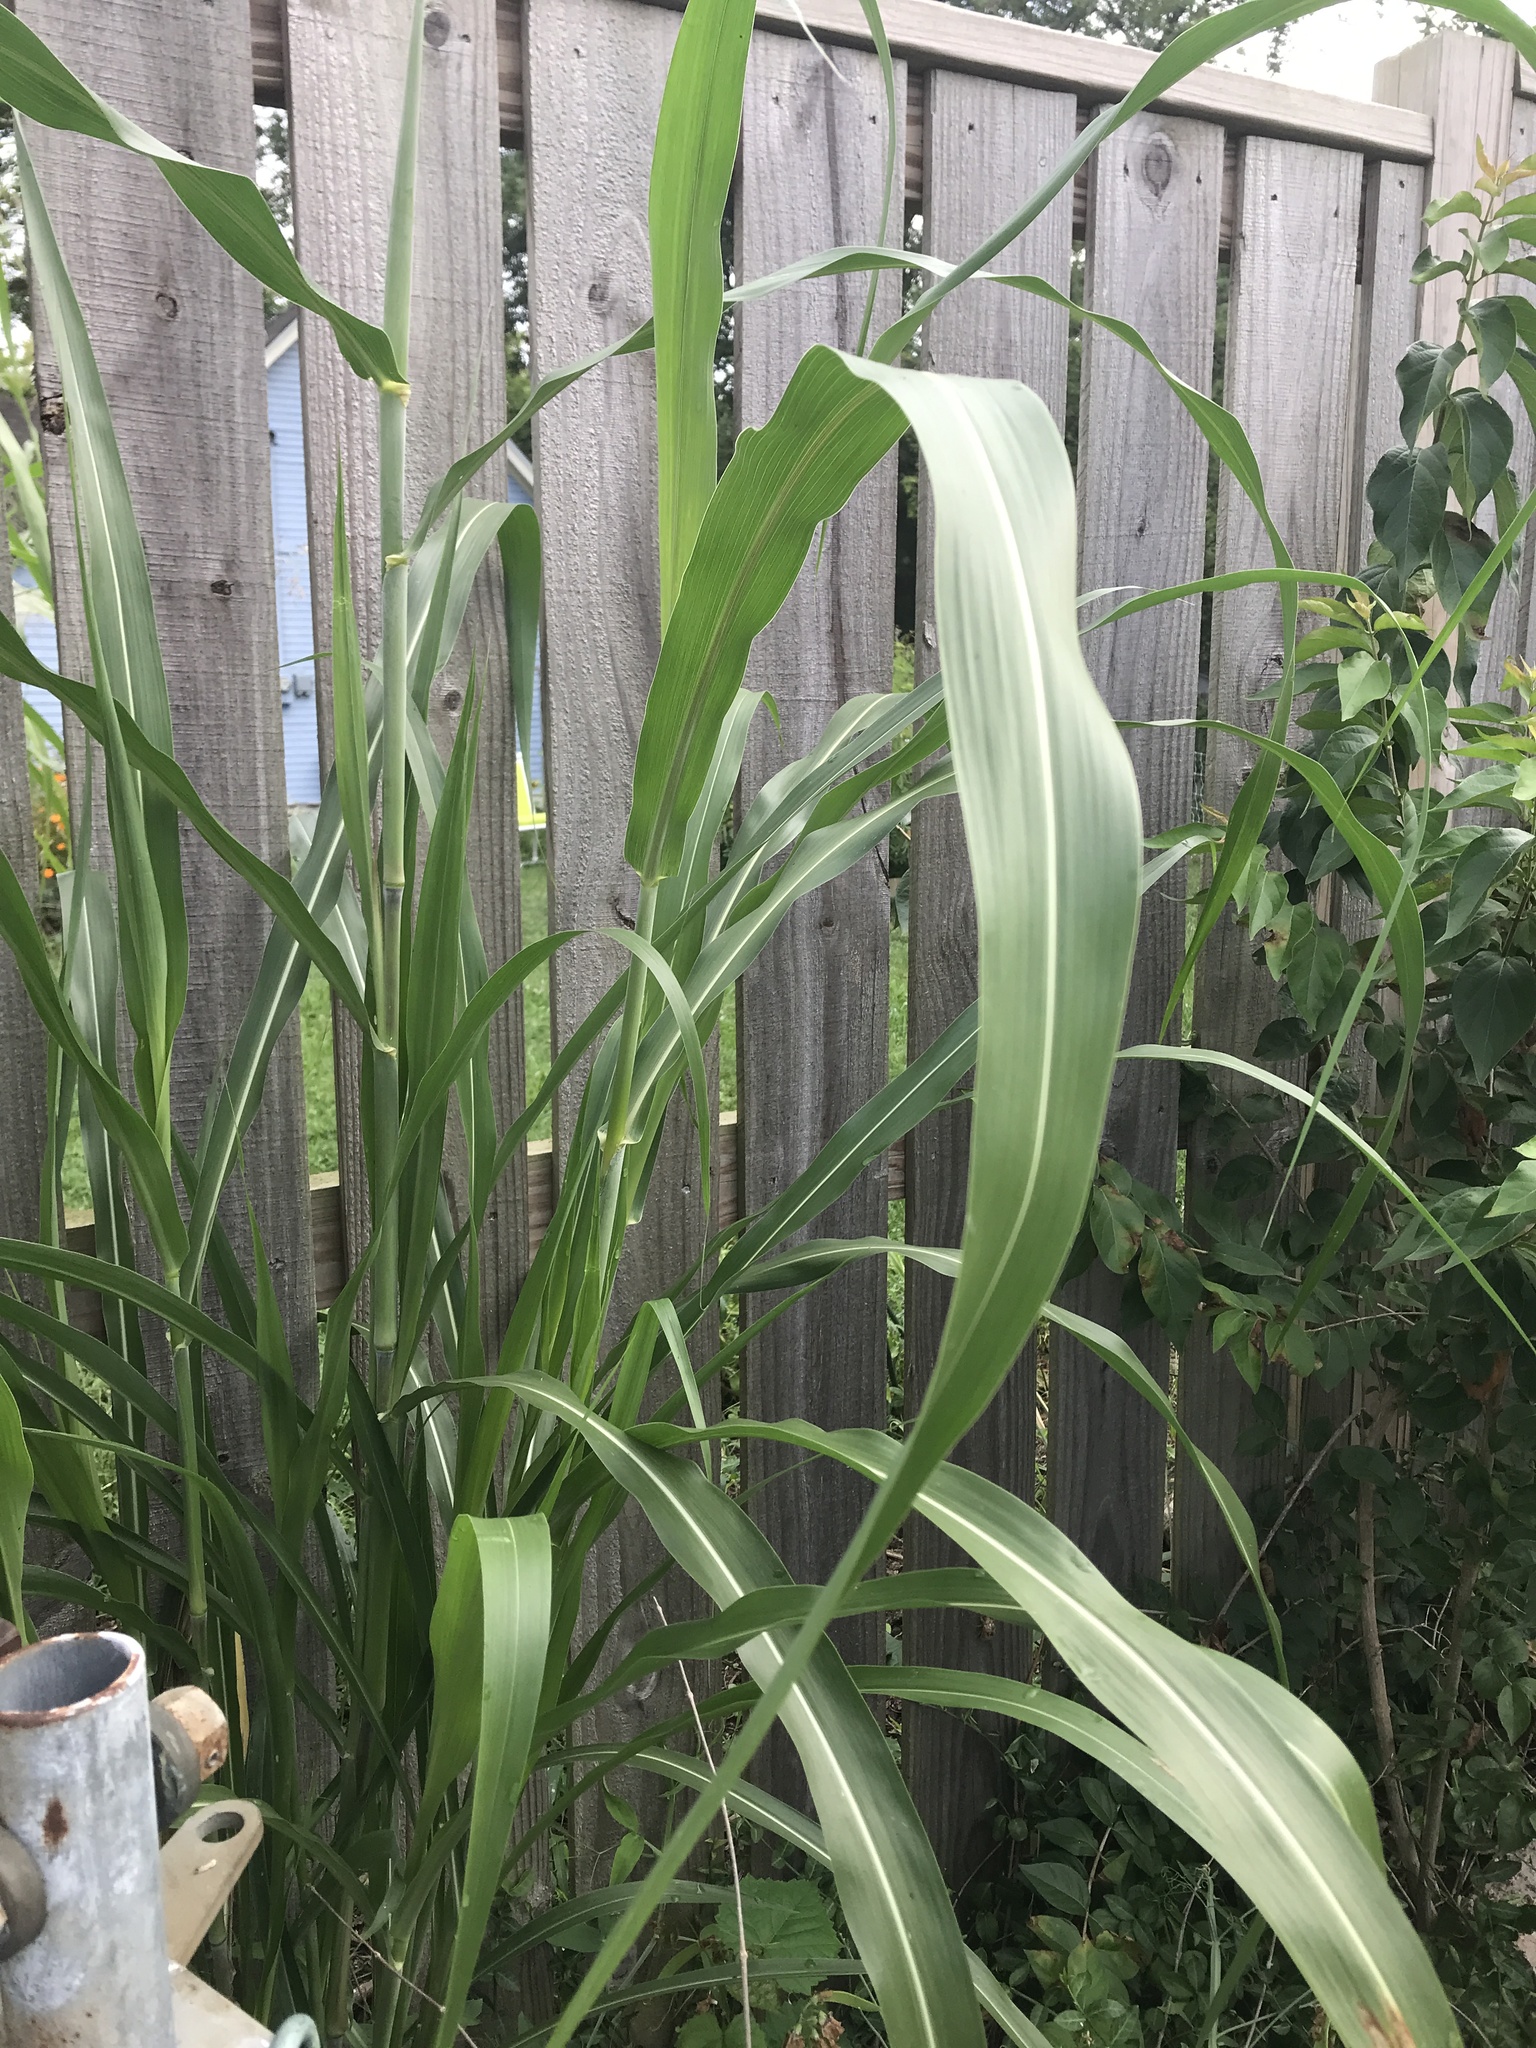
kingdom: Plantae
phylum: Tracheophyta
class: Liliopsida
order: Poales
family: Poaceae
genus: Sorghum
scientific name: Sorghum halepense
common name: Johnson-grass
